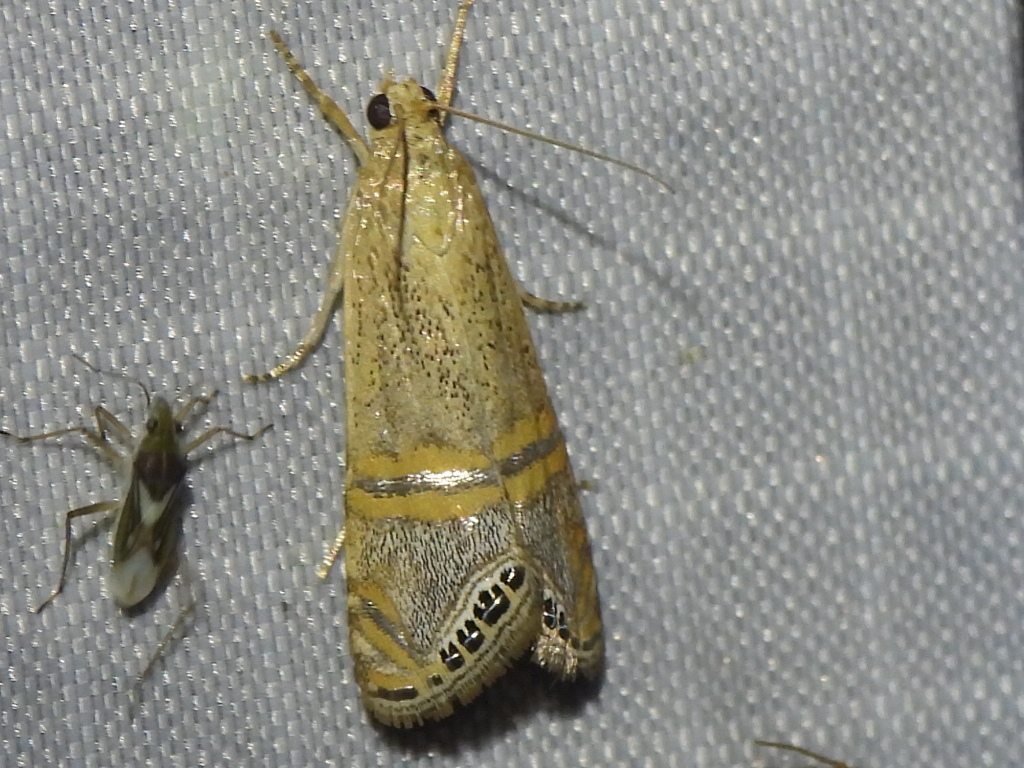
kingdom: Animalia
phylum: Arthropoda
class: Insecta
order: Lepidoptera
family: Crambidae
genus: Euchromius
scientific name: Euchromius ocellea
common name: Necklace veneer moth
